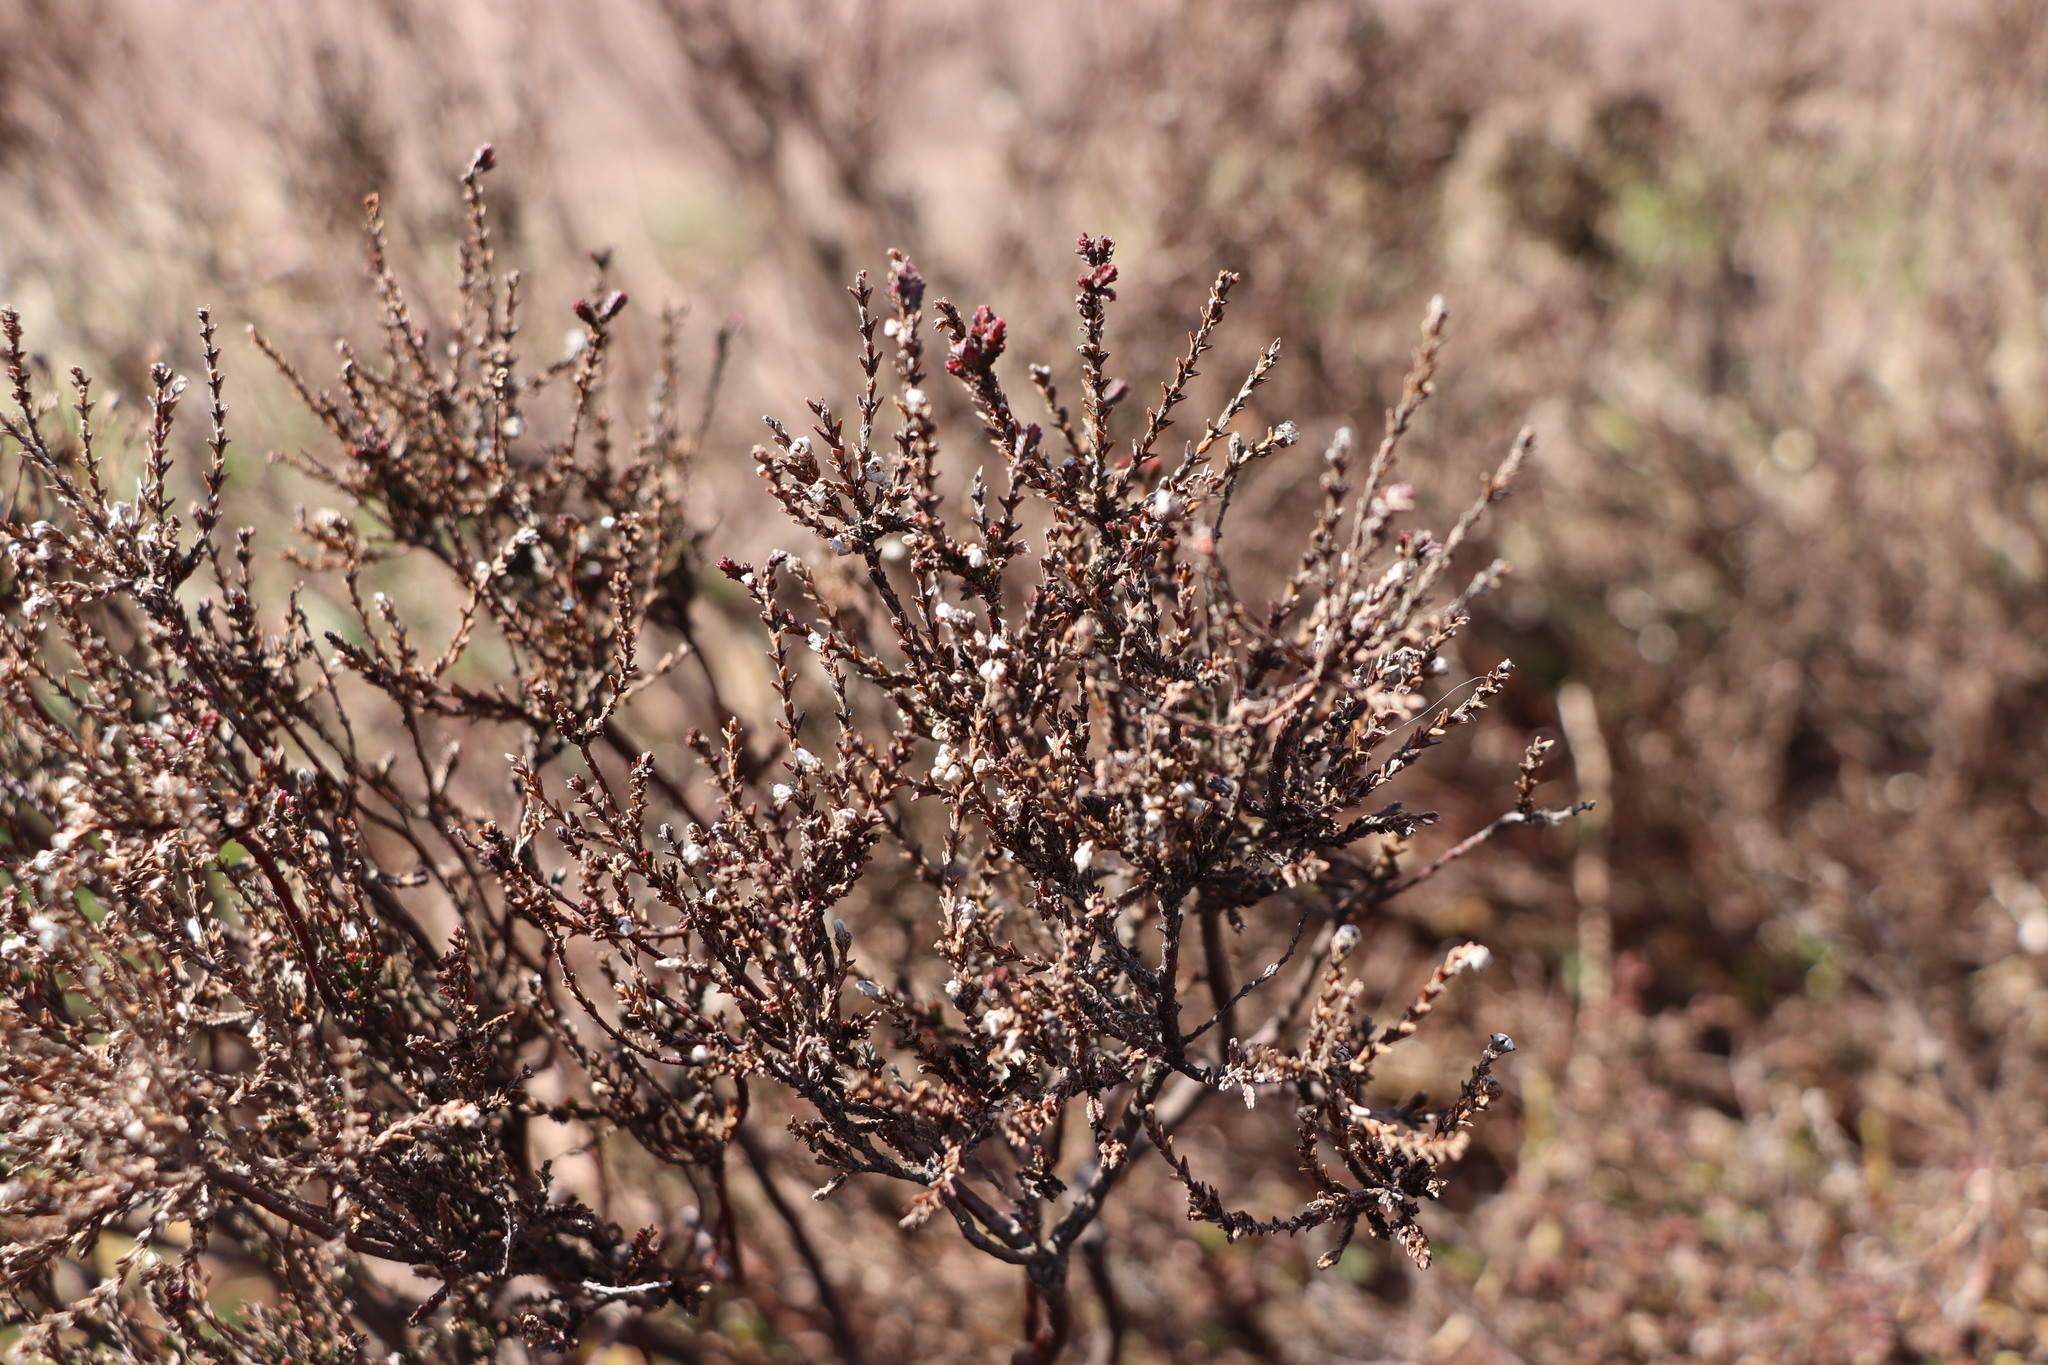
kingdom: Plantae
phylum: Tracheophyta
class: Magnoliopsida
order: Ericales
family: Ericaceae
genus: Calluna
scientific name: Calluna vulgaris
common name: Heather
